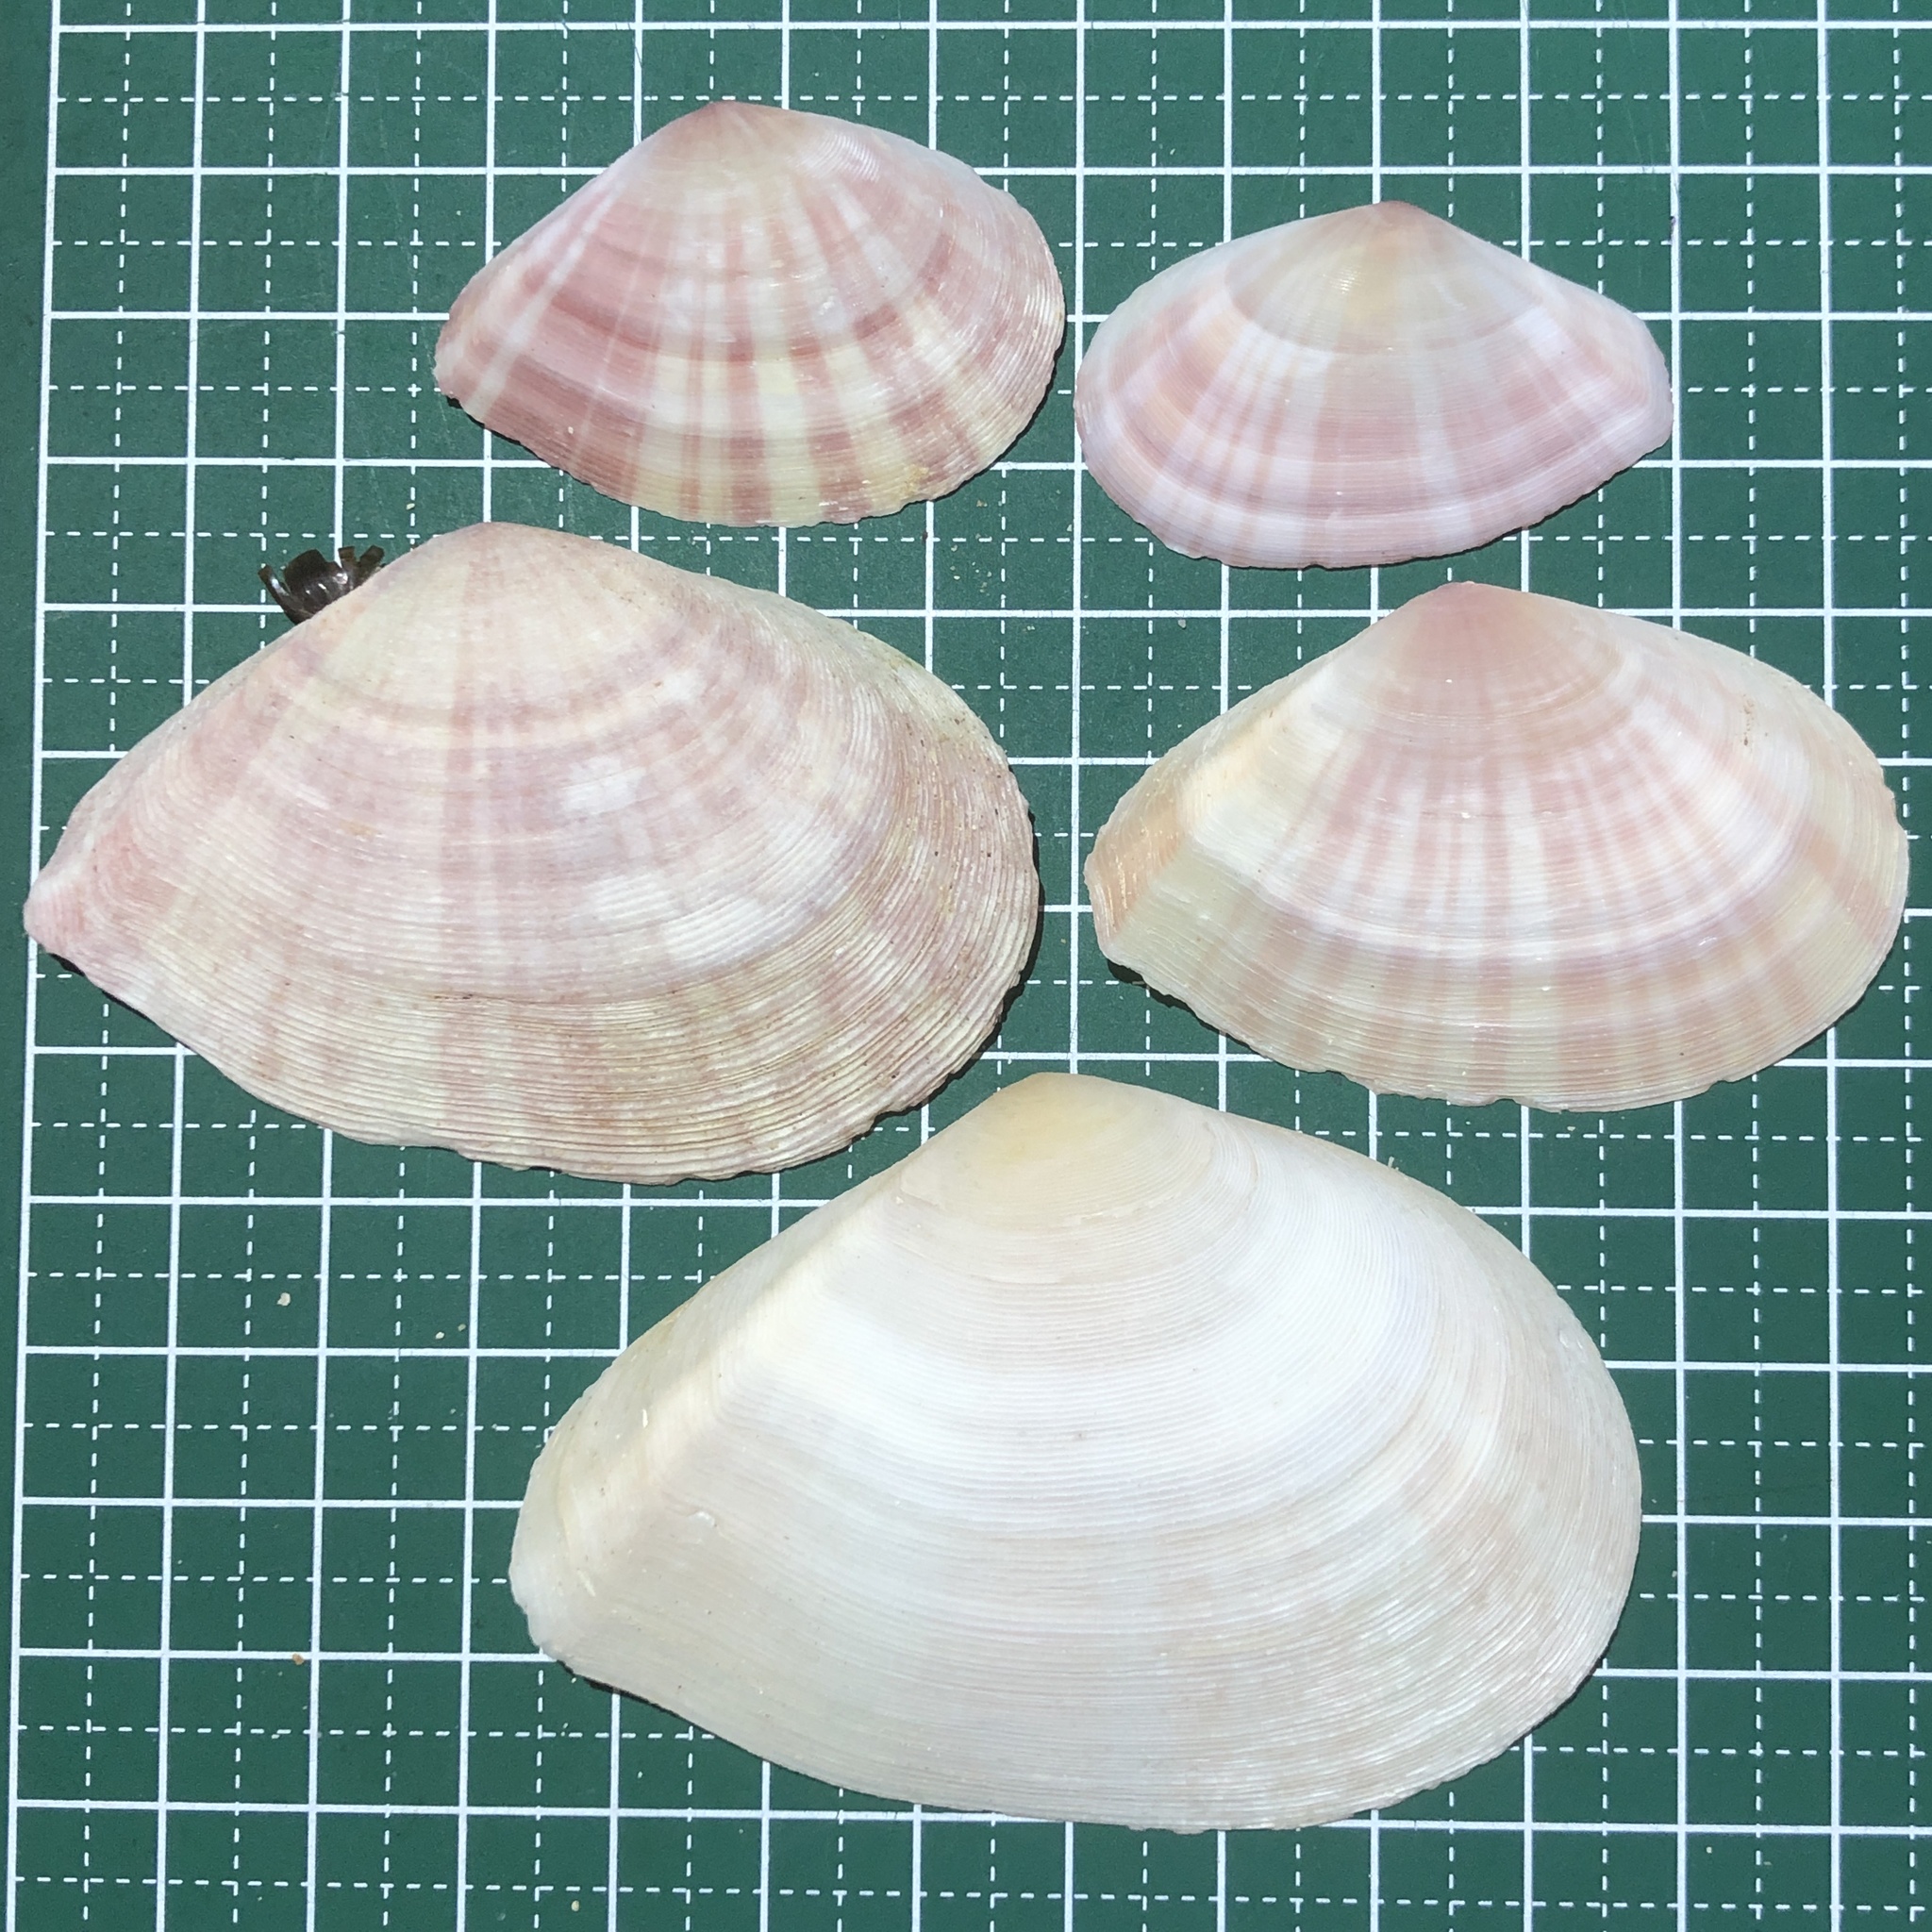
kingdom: Animalia
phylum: Mollusca
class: Bivalvia
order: Cardiida
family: Tellinidae
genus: Tellinella
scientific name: Tellinella virgata
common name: Striped tellin
